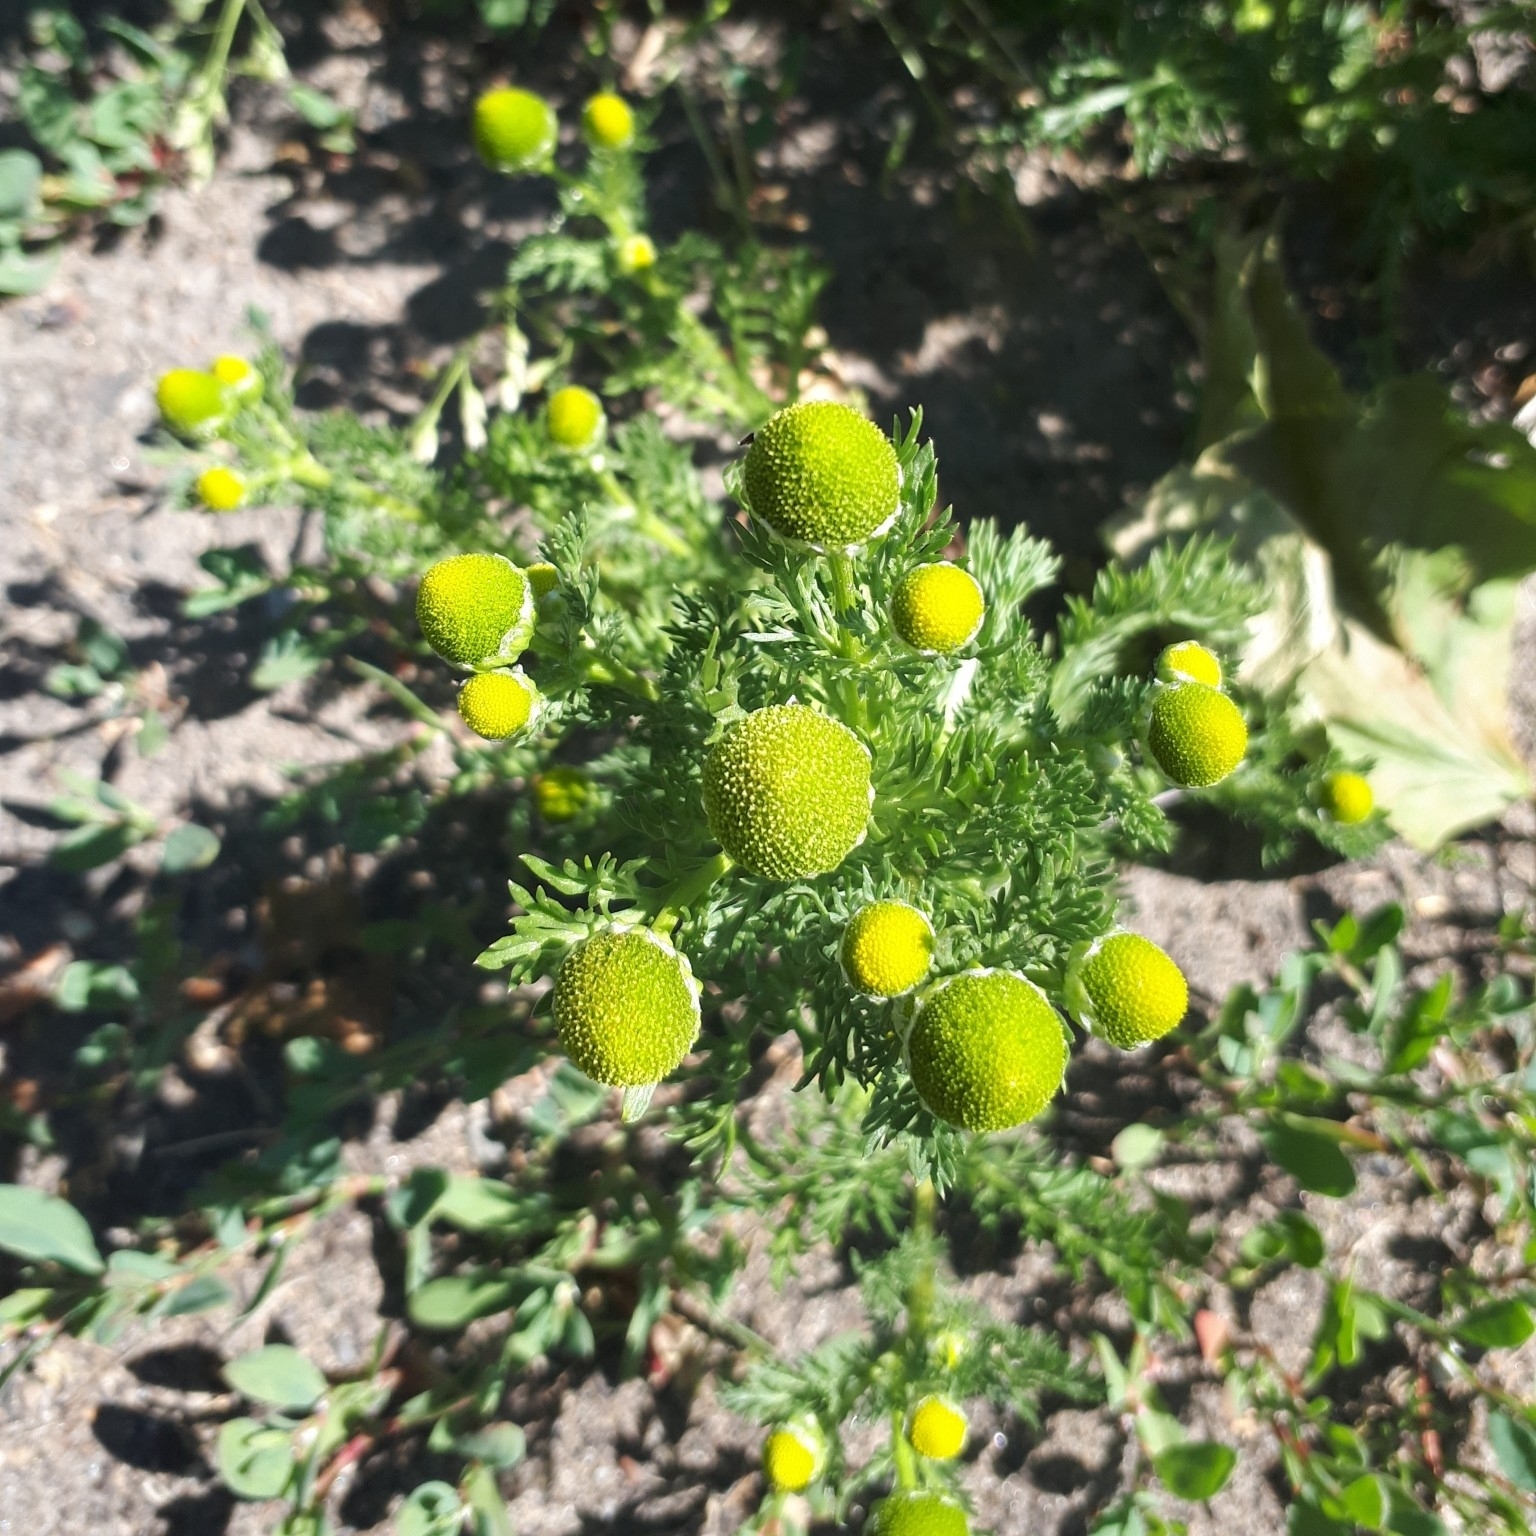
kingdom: Plantae
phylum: Tracheophyta
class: Magnoliopsida
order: Asterales
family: Asteraceae
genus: Matricaria
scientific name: Matricaria discoidea
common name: Disc mayweed
